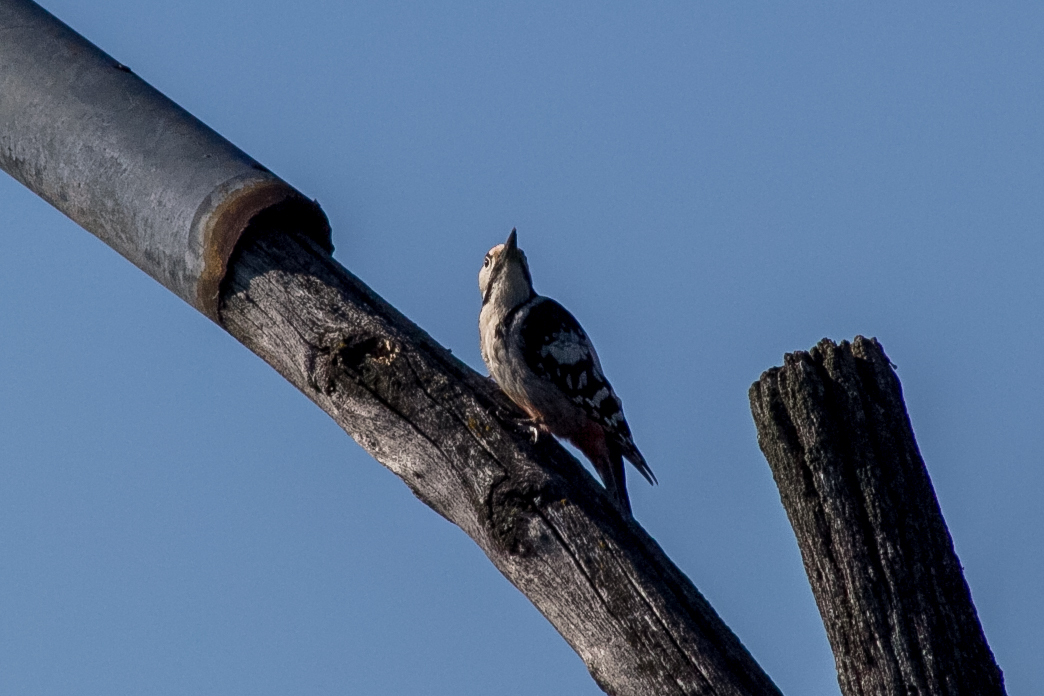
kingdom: Animalia
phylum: Chordata
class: Aves
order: Piciformes
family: Picidae
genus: Dendrocopos
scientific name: Dendrocopos leucotos
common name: White-backed woodpecker
